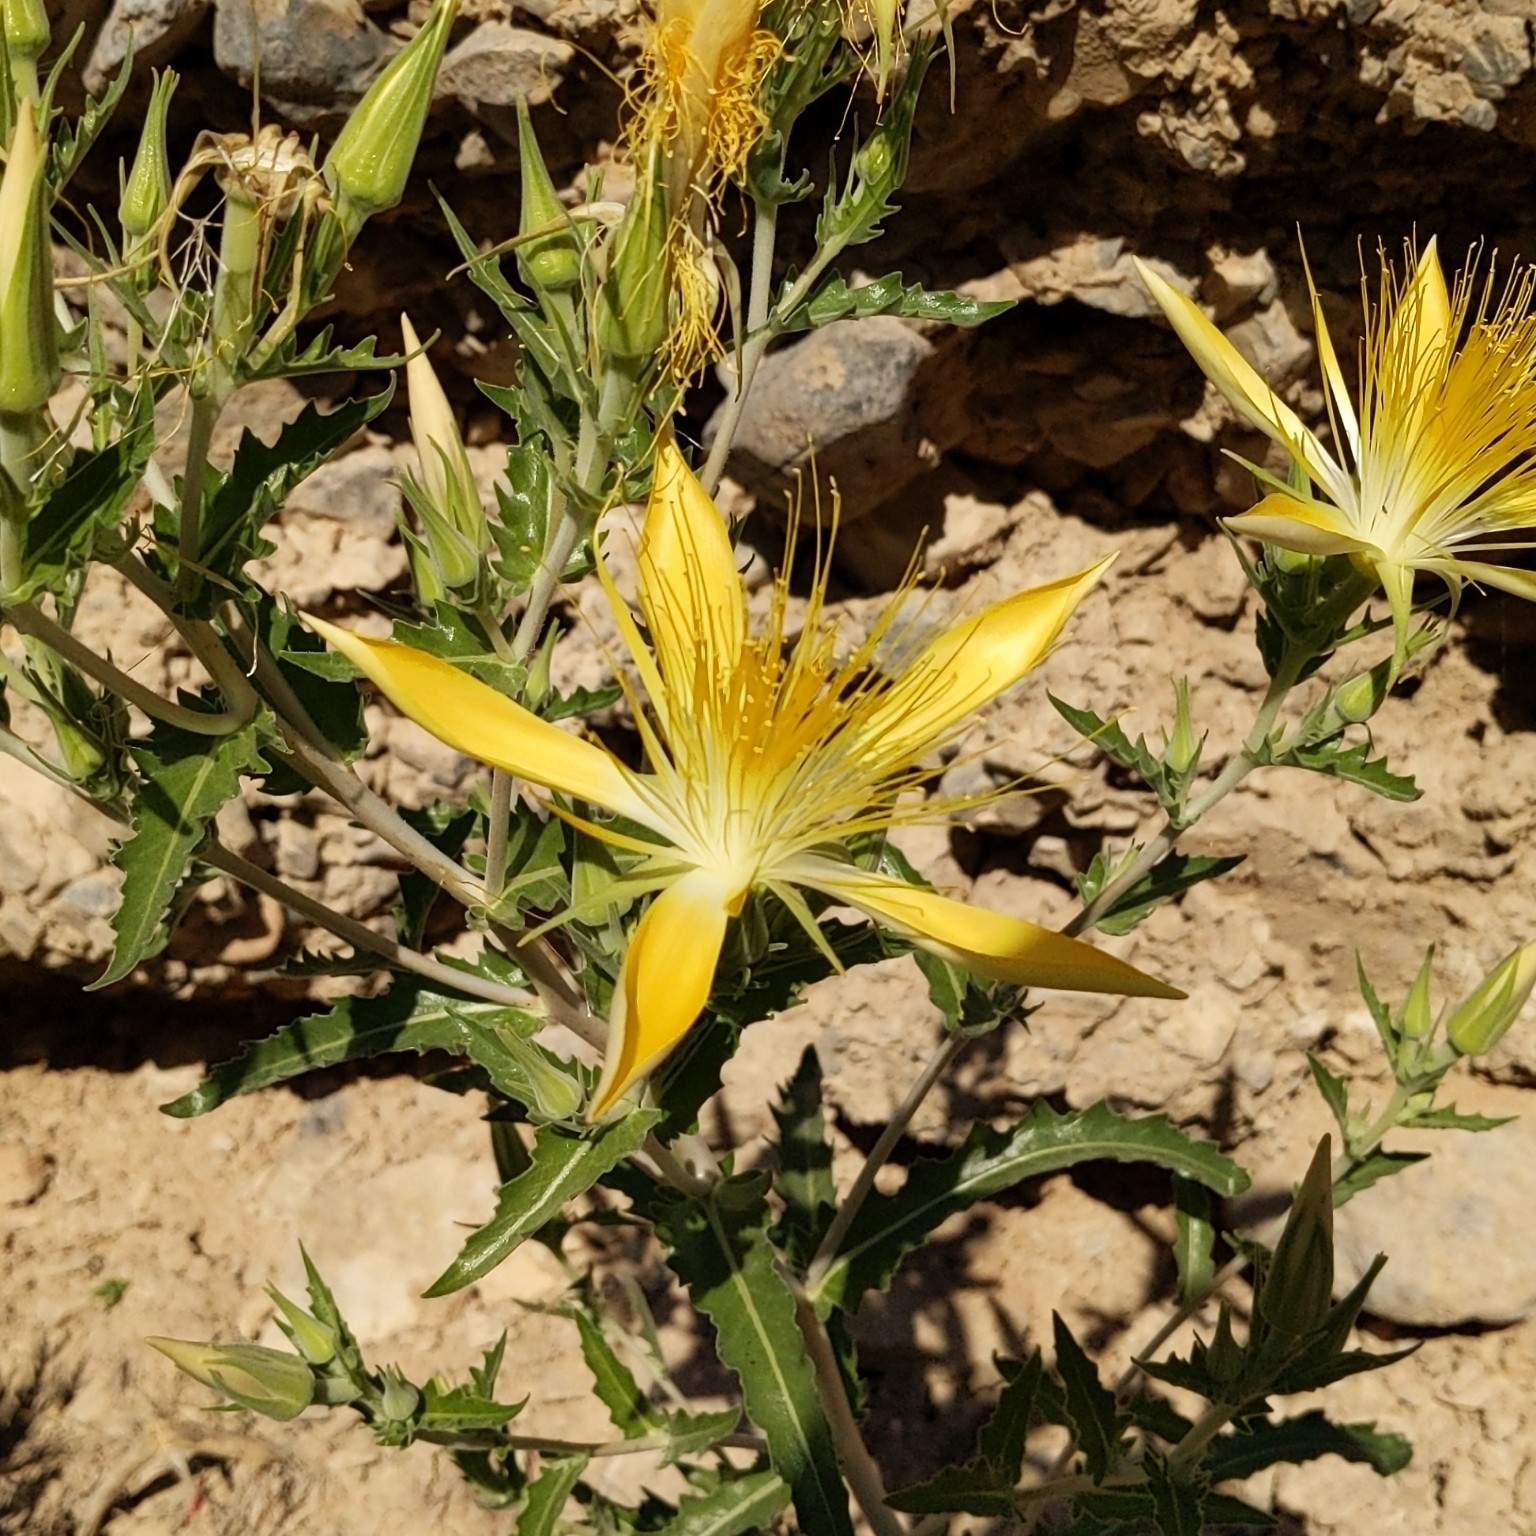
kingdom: Plantae
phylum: Tracheophyta
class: Magnoliopsida
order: Cornales
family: Loasaceae
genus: Mentzelia
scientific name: Mentzelia laevicaulis
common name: Smooth-stem blazingstar
